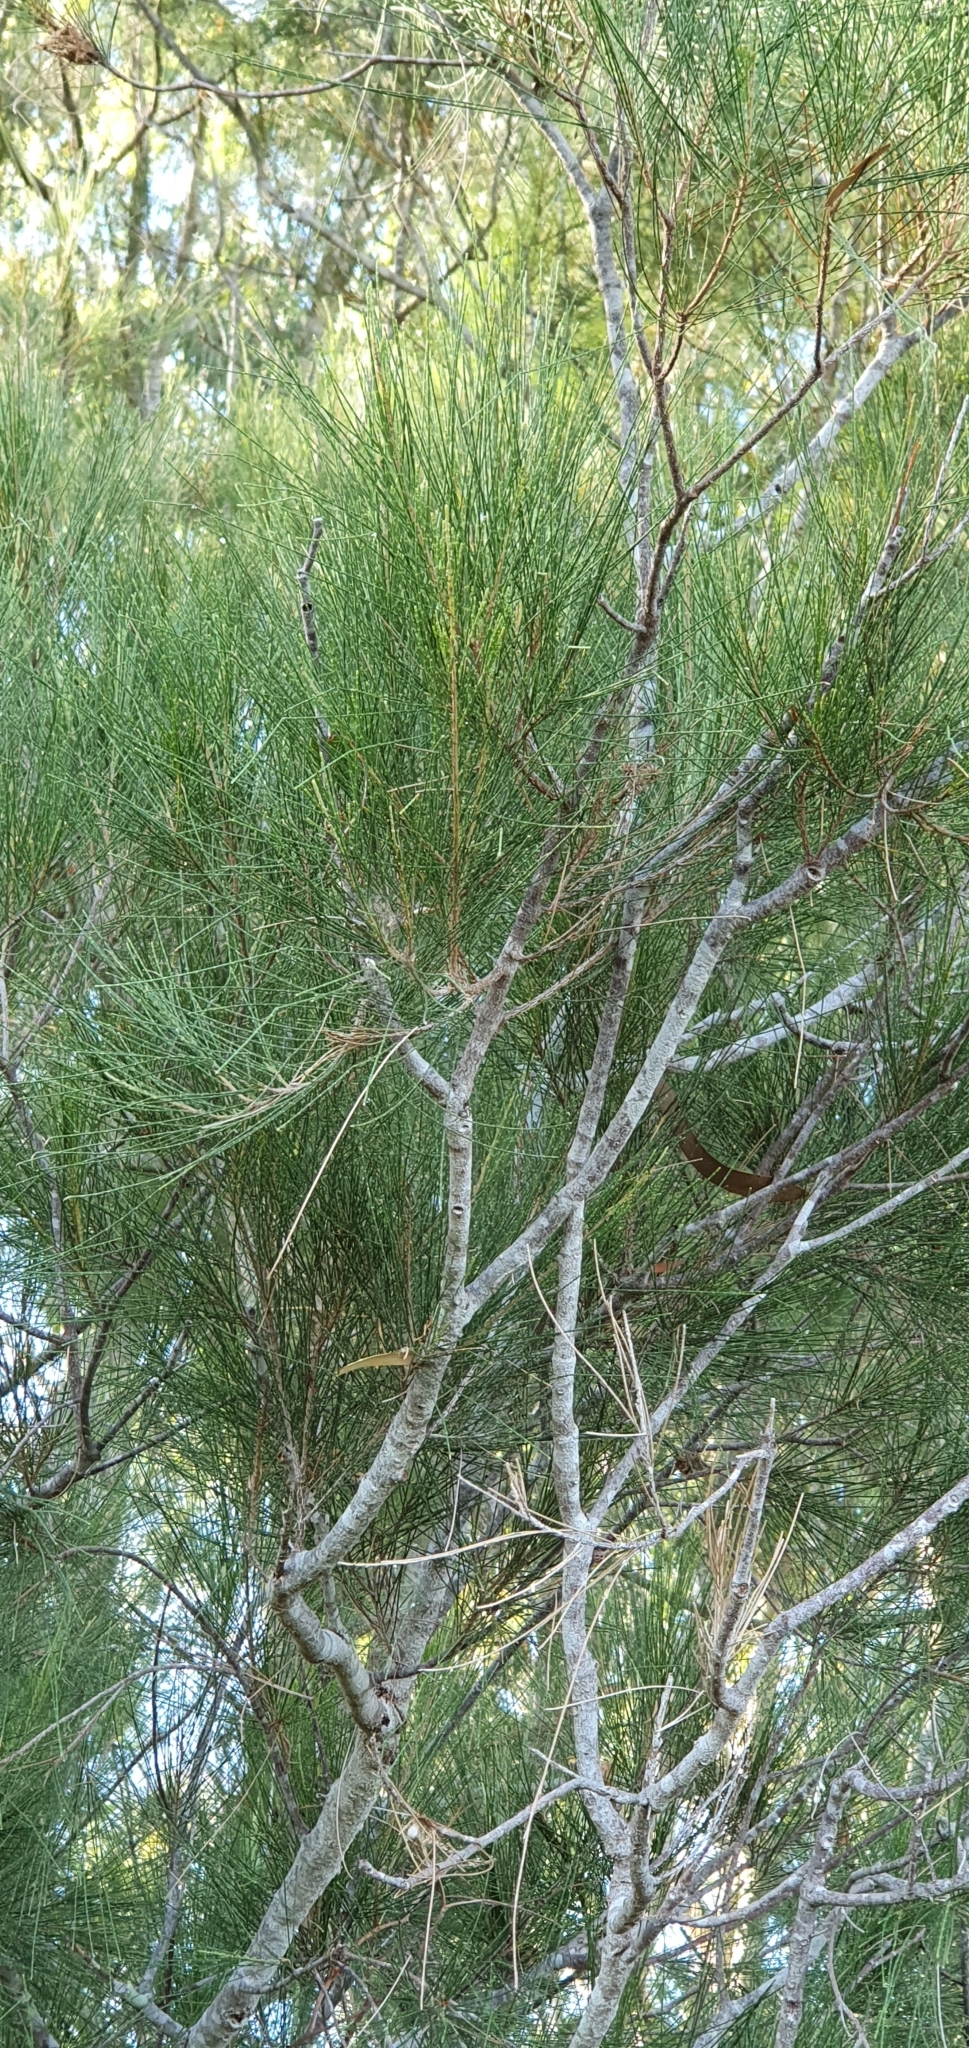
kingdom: Plantae
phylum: Tracheophyta
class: Magnoliopsida
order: Fagales
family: Casuarinaceae
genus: Casuarina
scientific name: Casuarina cunninghamiana
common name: River sheoak
